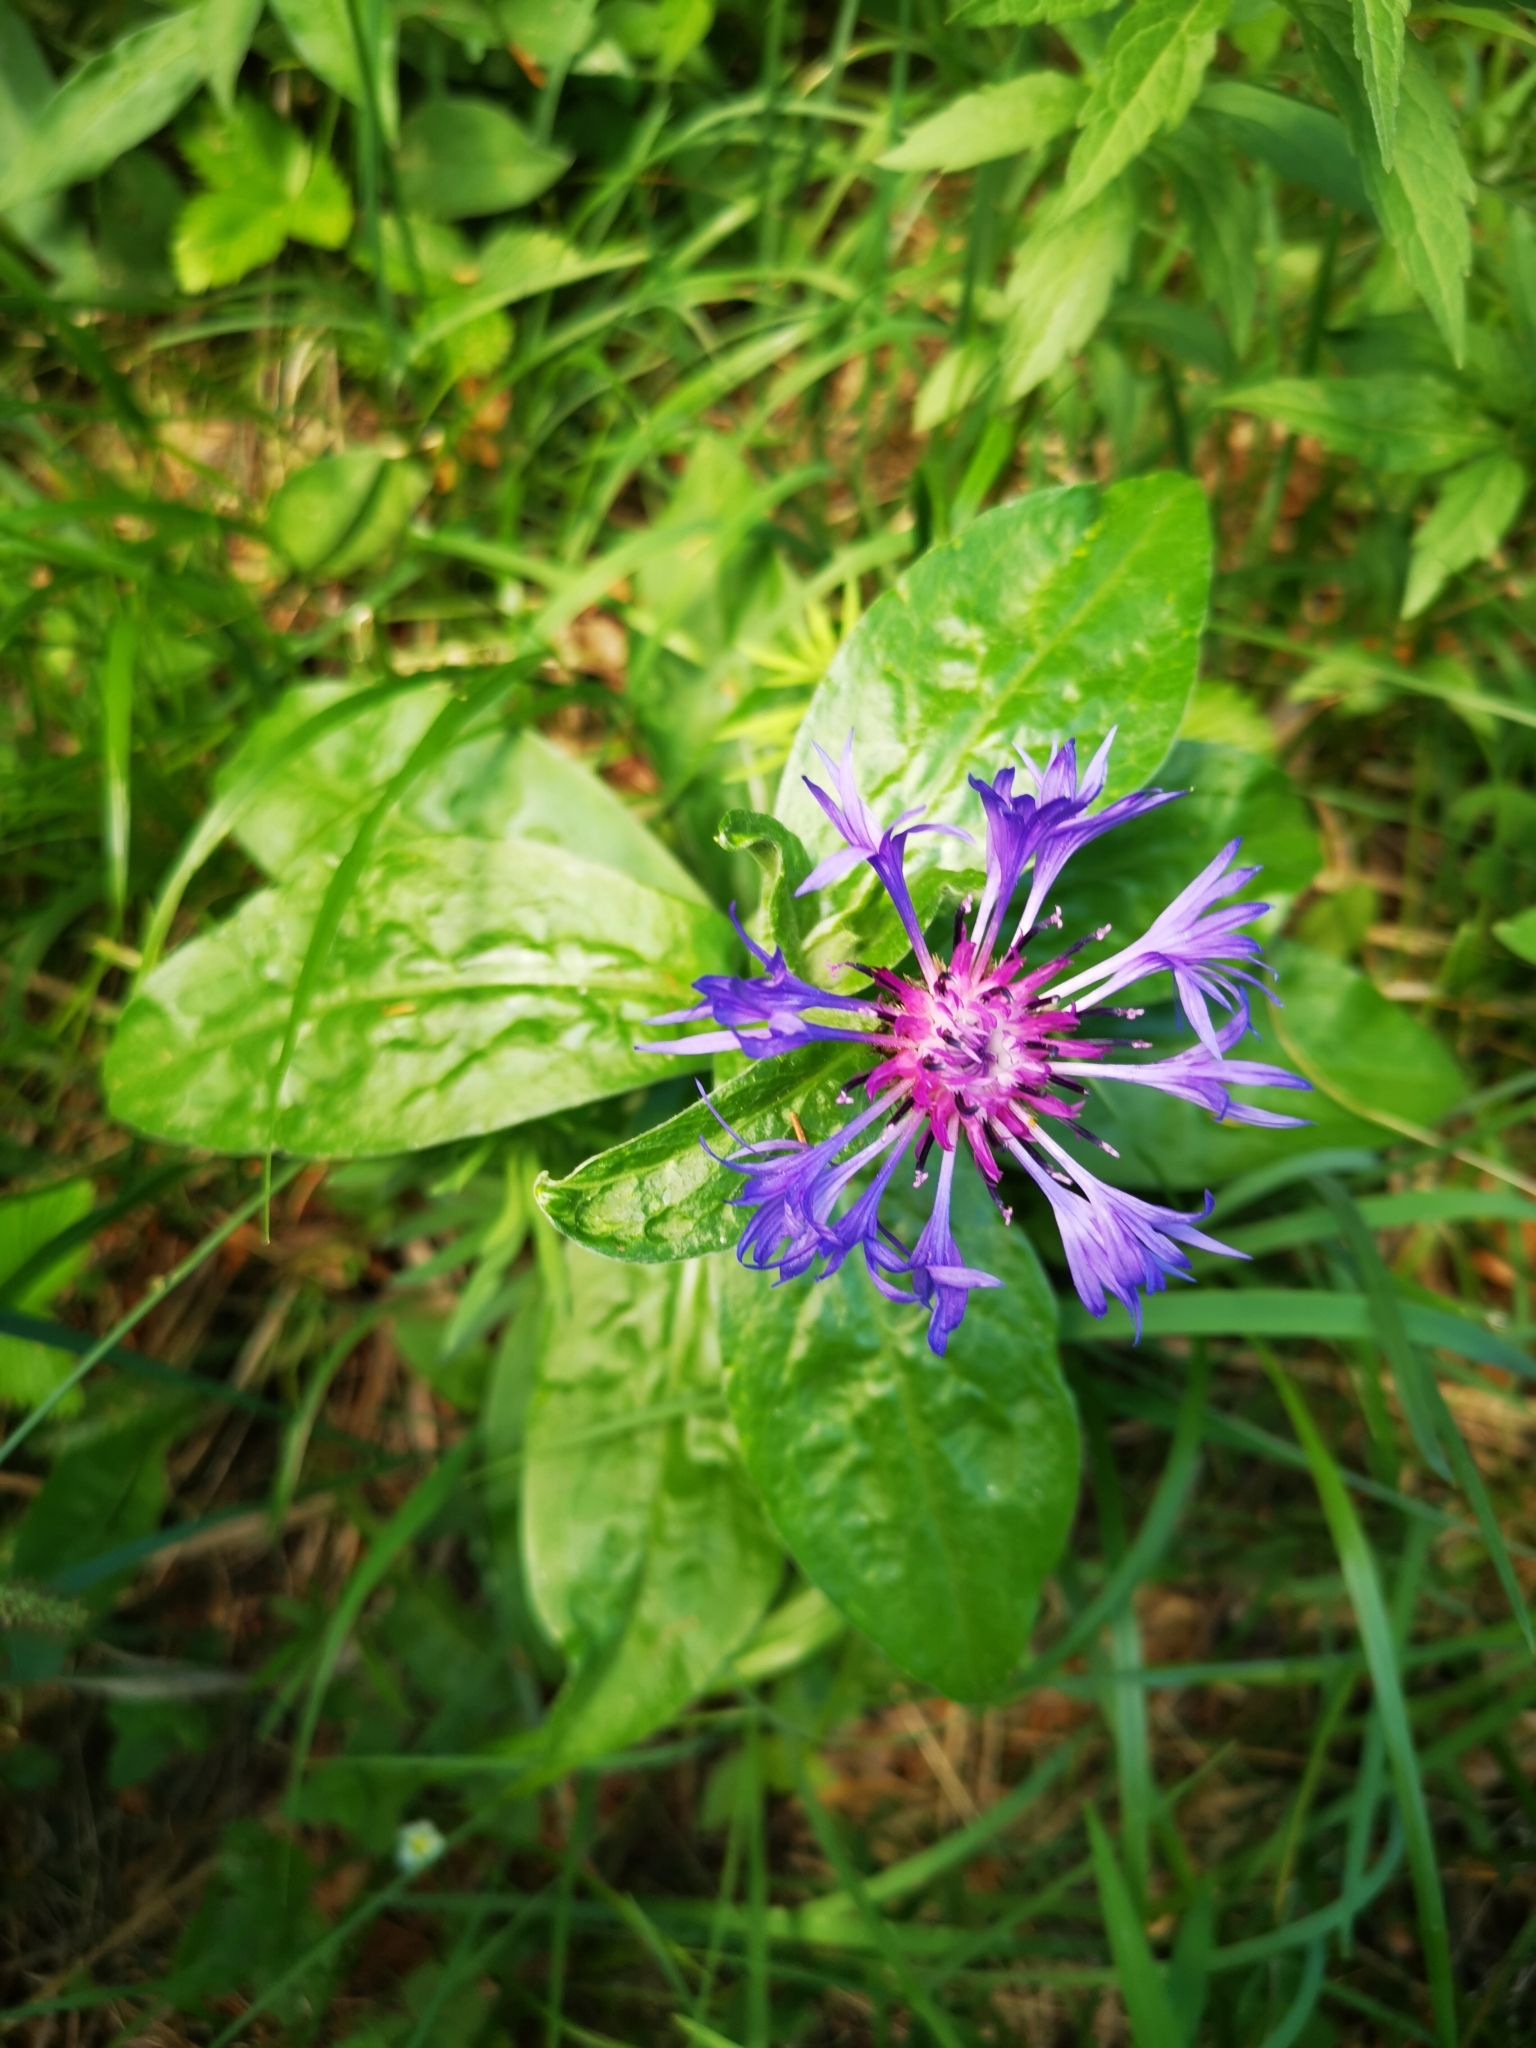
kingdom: Plantae
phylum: Tracheophyta
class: Magnoliopsida
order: Asterales
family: Asteraceae
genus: Centaurea
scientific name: Centaurea montana
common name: Perennial cornflower
